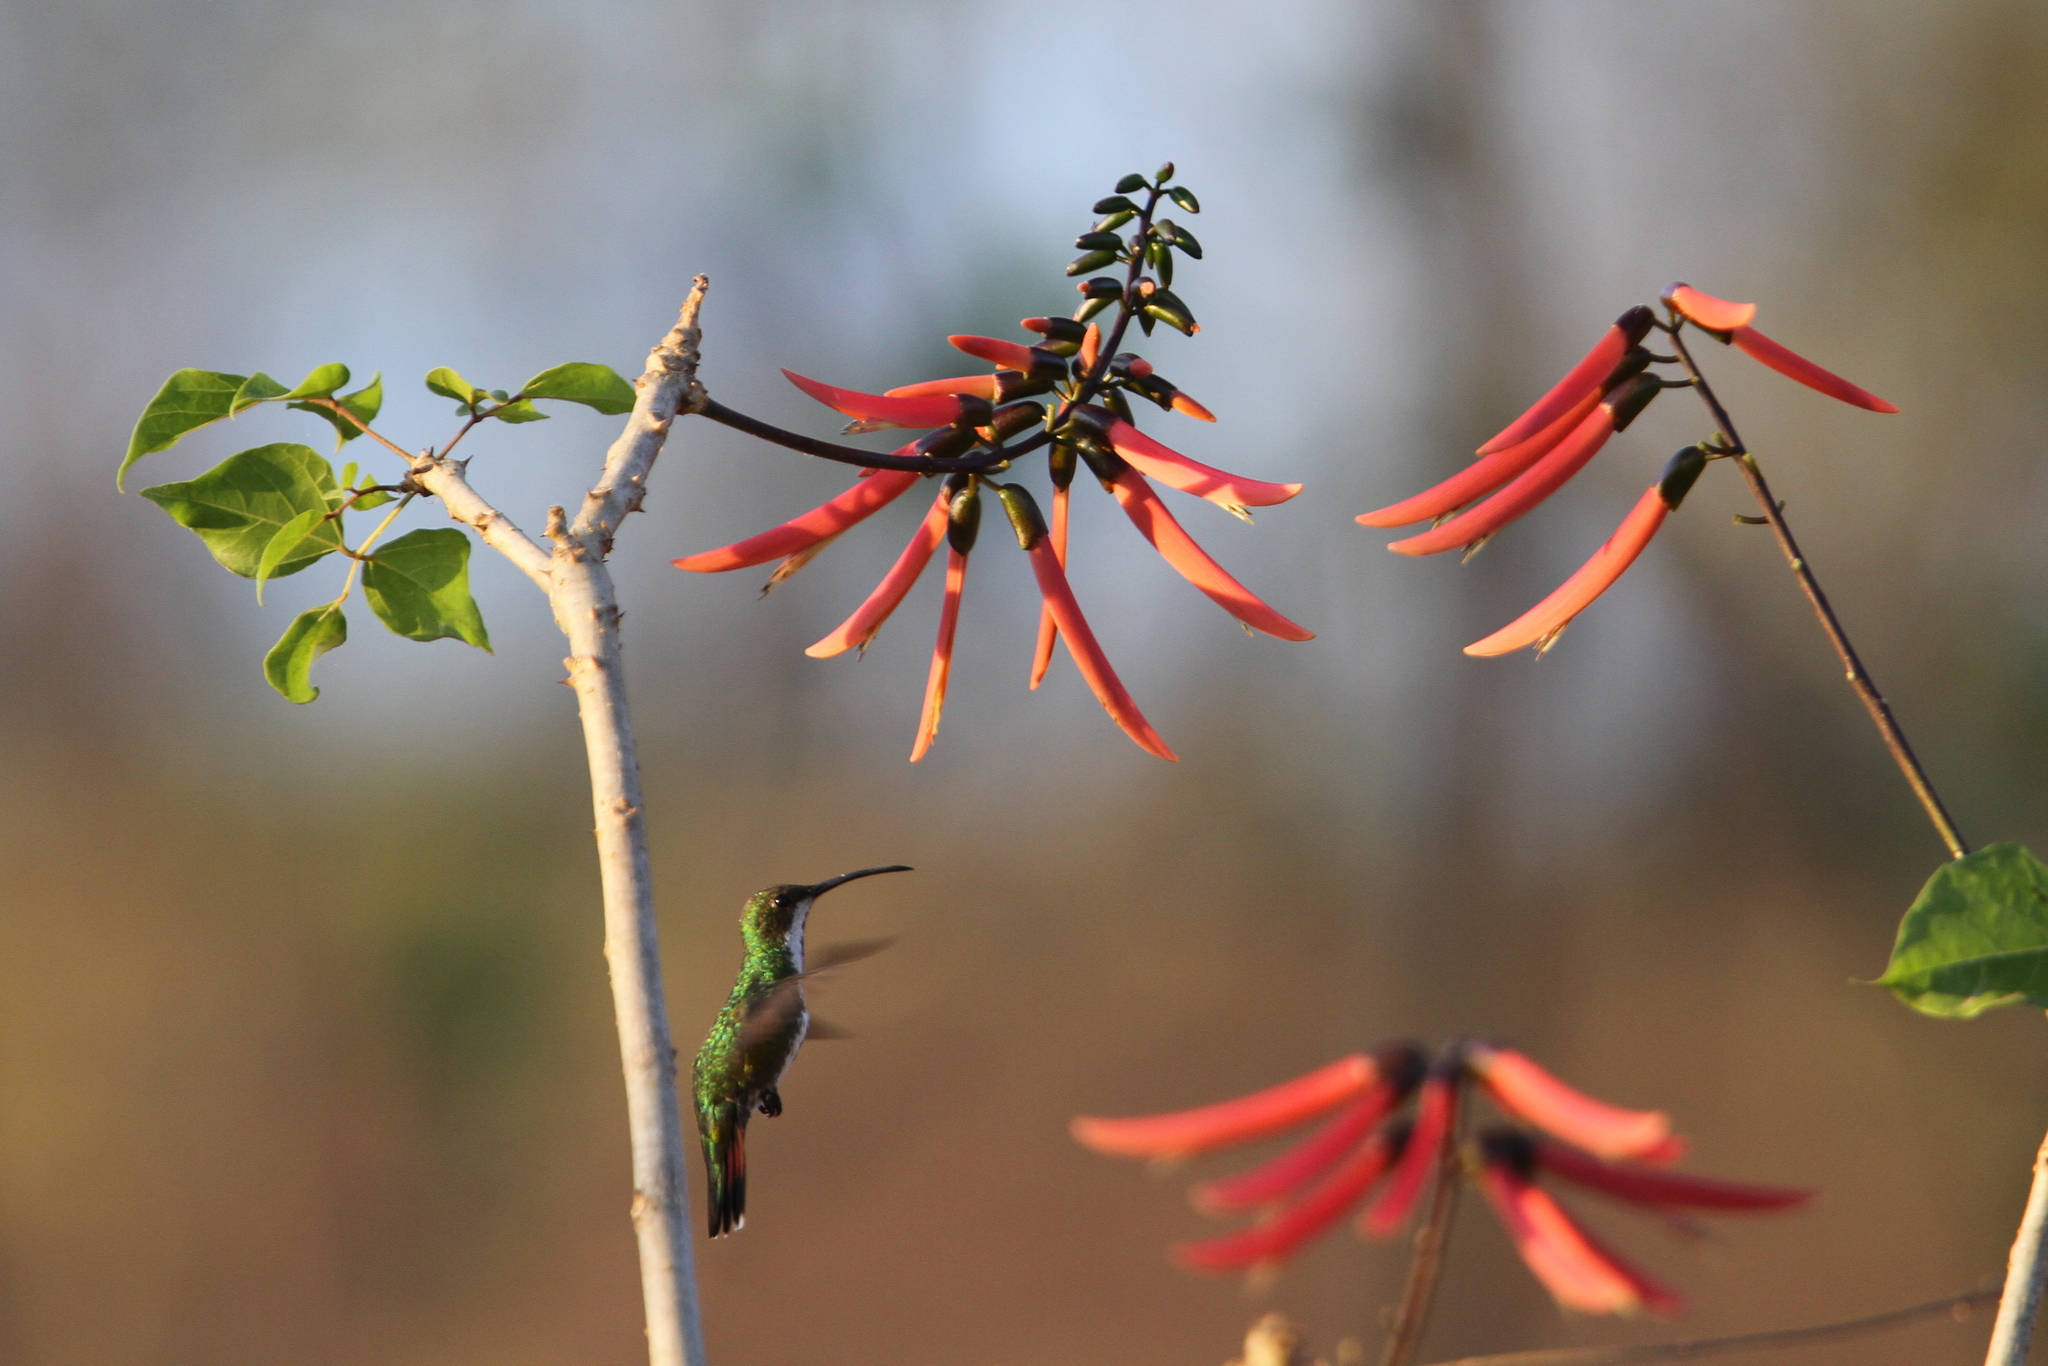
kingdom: Animalia
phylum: Chordata
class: Aves
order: Apodiformes
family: Trochilidae
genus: Anthracothorax
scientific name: Anthracothorax prevostii
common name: Green-breasted mango
